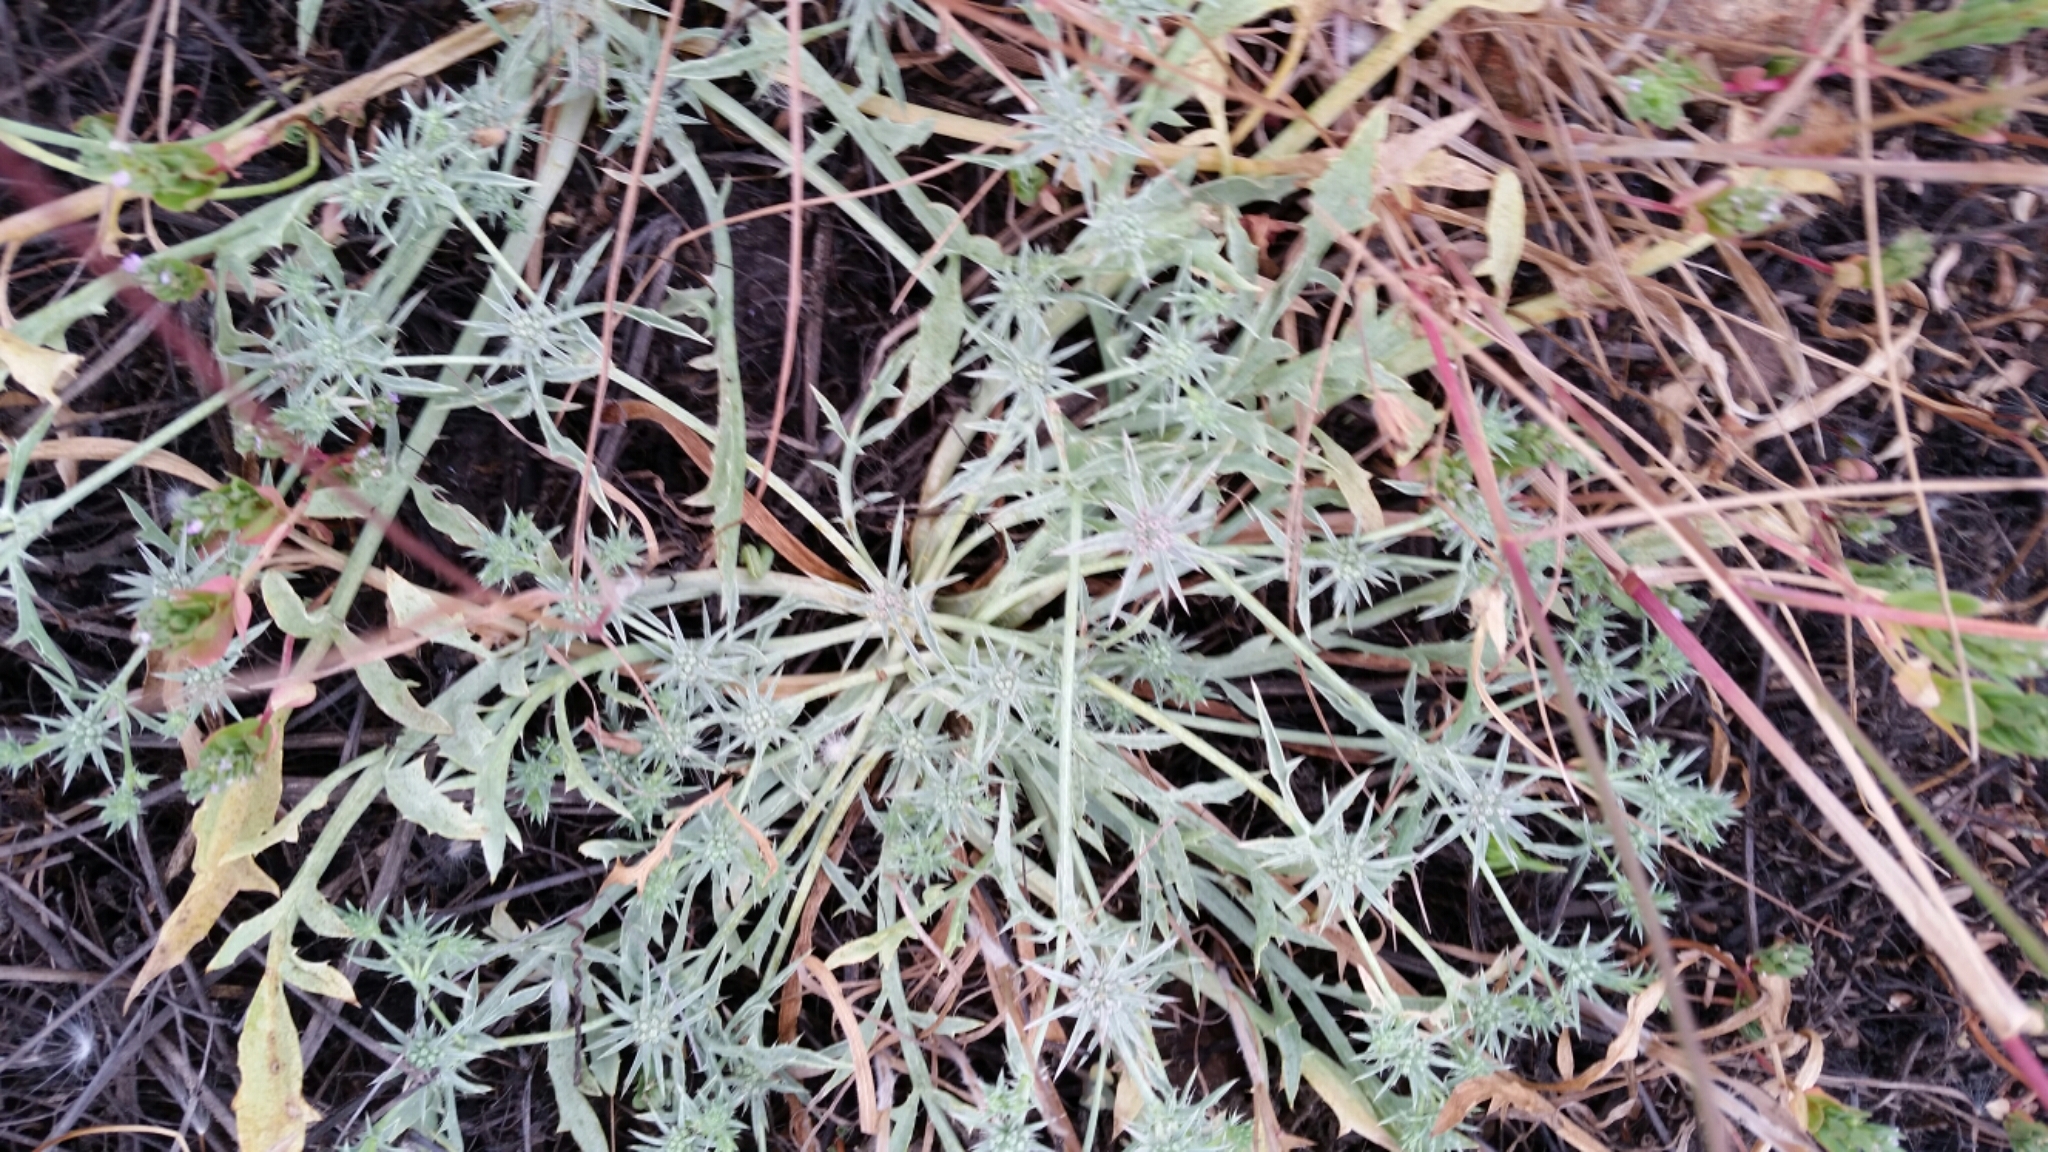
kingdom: Plantae
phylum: Tracheophyta
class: Magnoliopsida
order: Apiales
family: Apiaceae
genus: Eryngium
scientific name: Eryngium aristulatum
